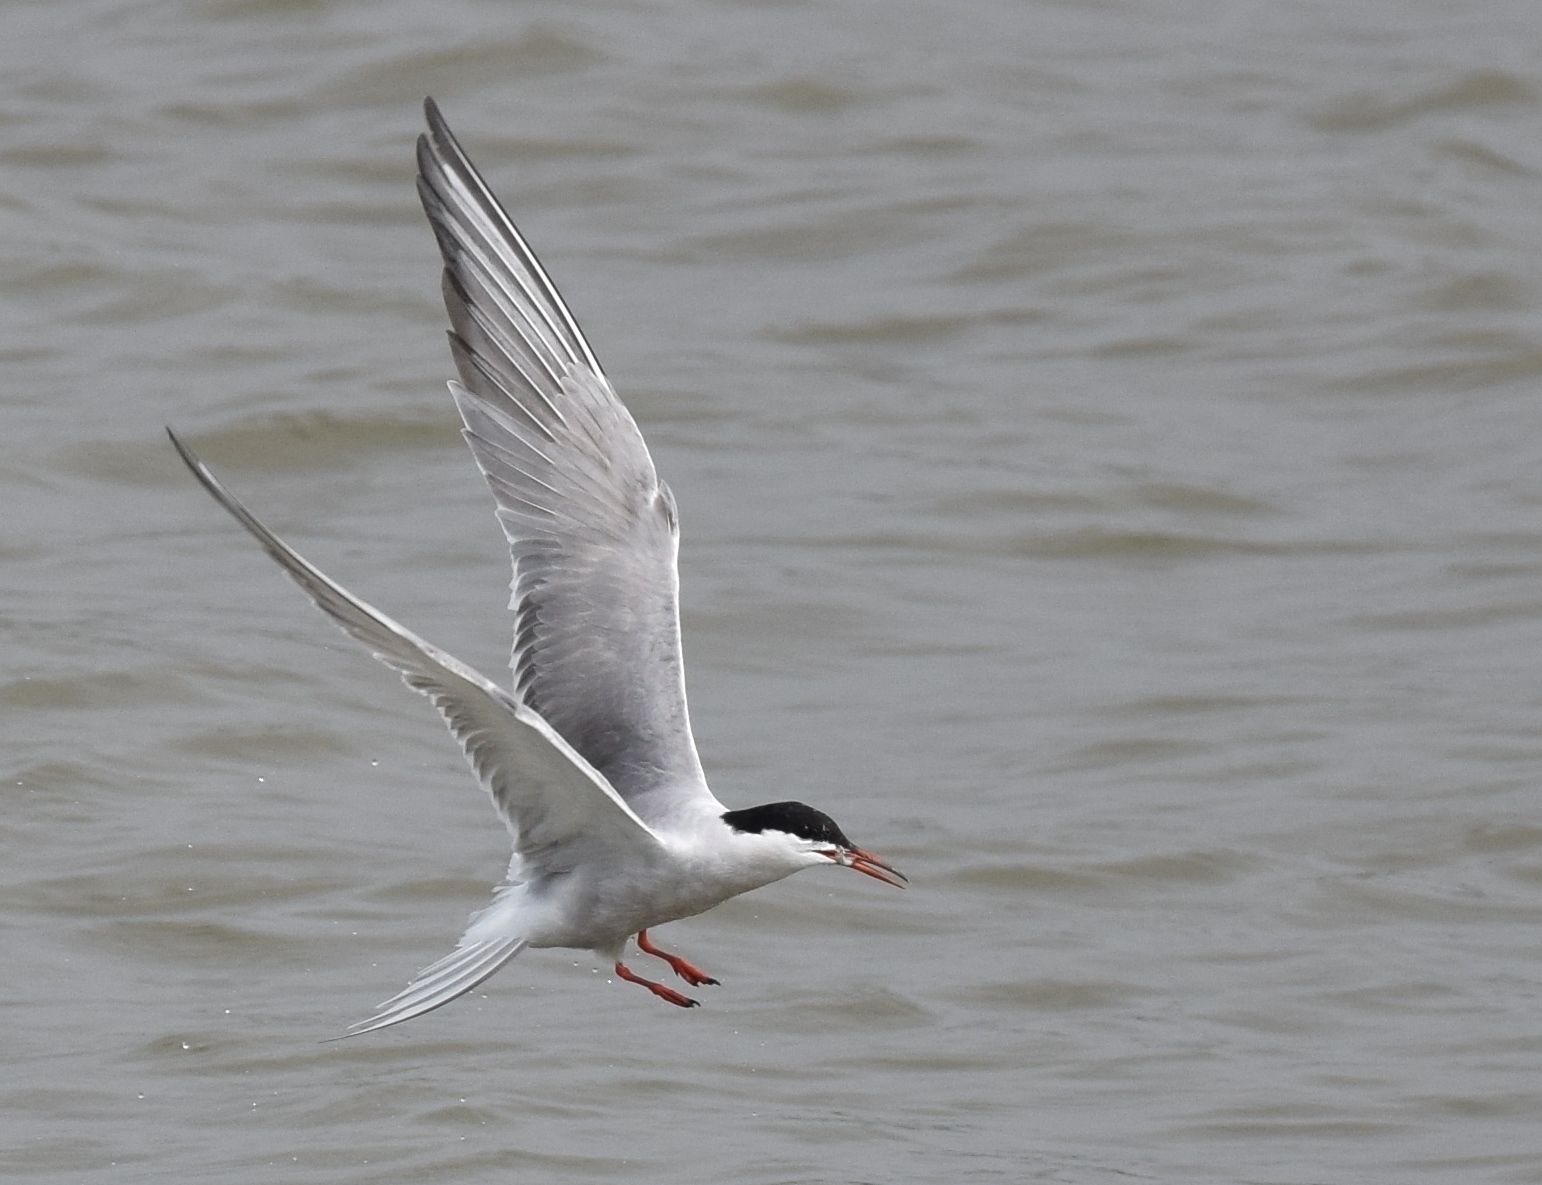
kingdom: Animalia
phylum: Chordata
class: Aves
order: Charadriiformes
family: Laridae
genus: Sterna
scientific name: Sterna hirundo
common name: Common tern
